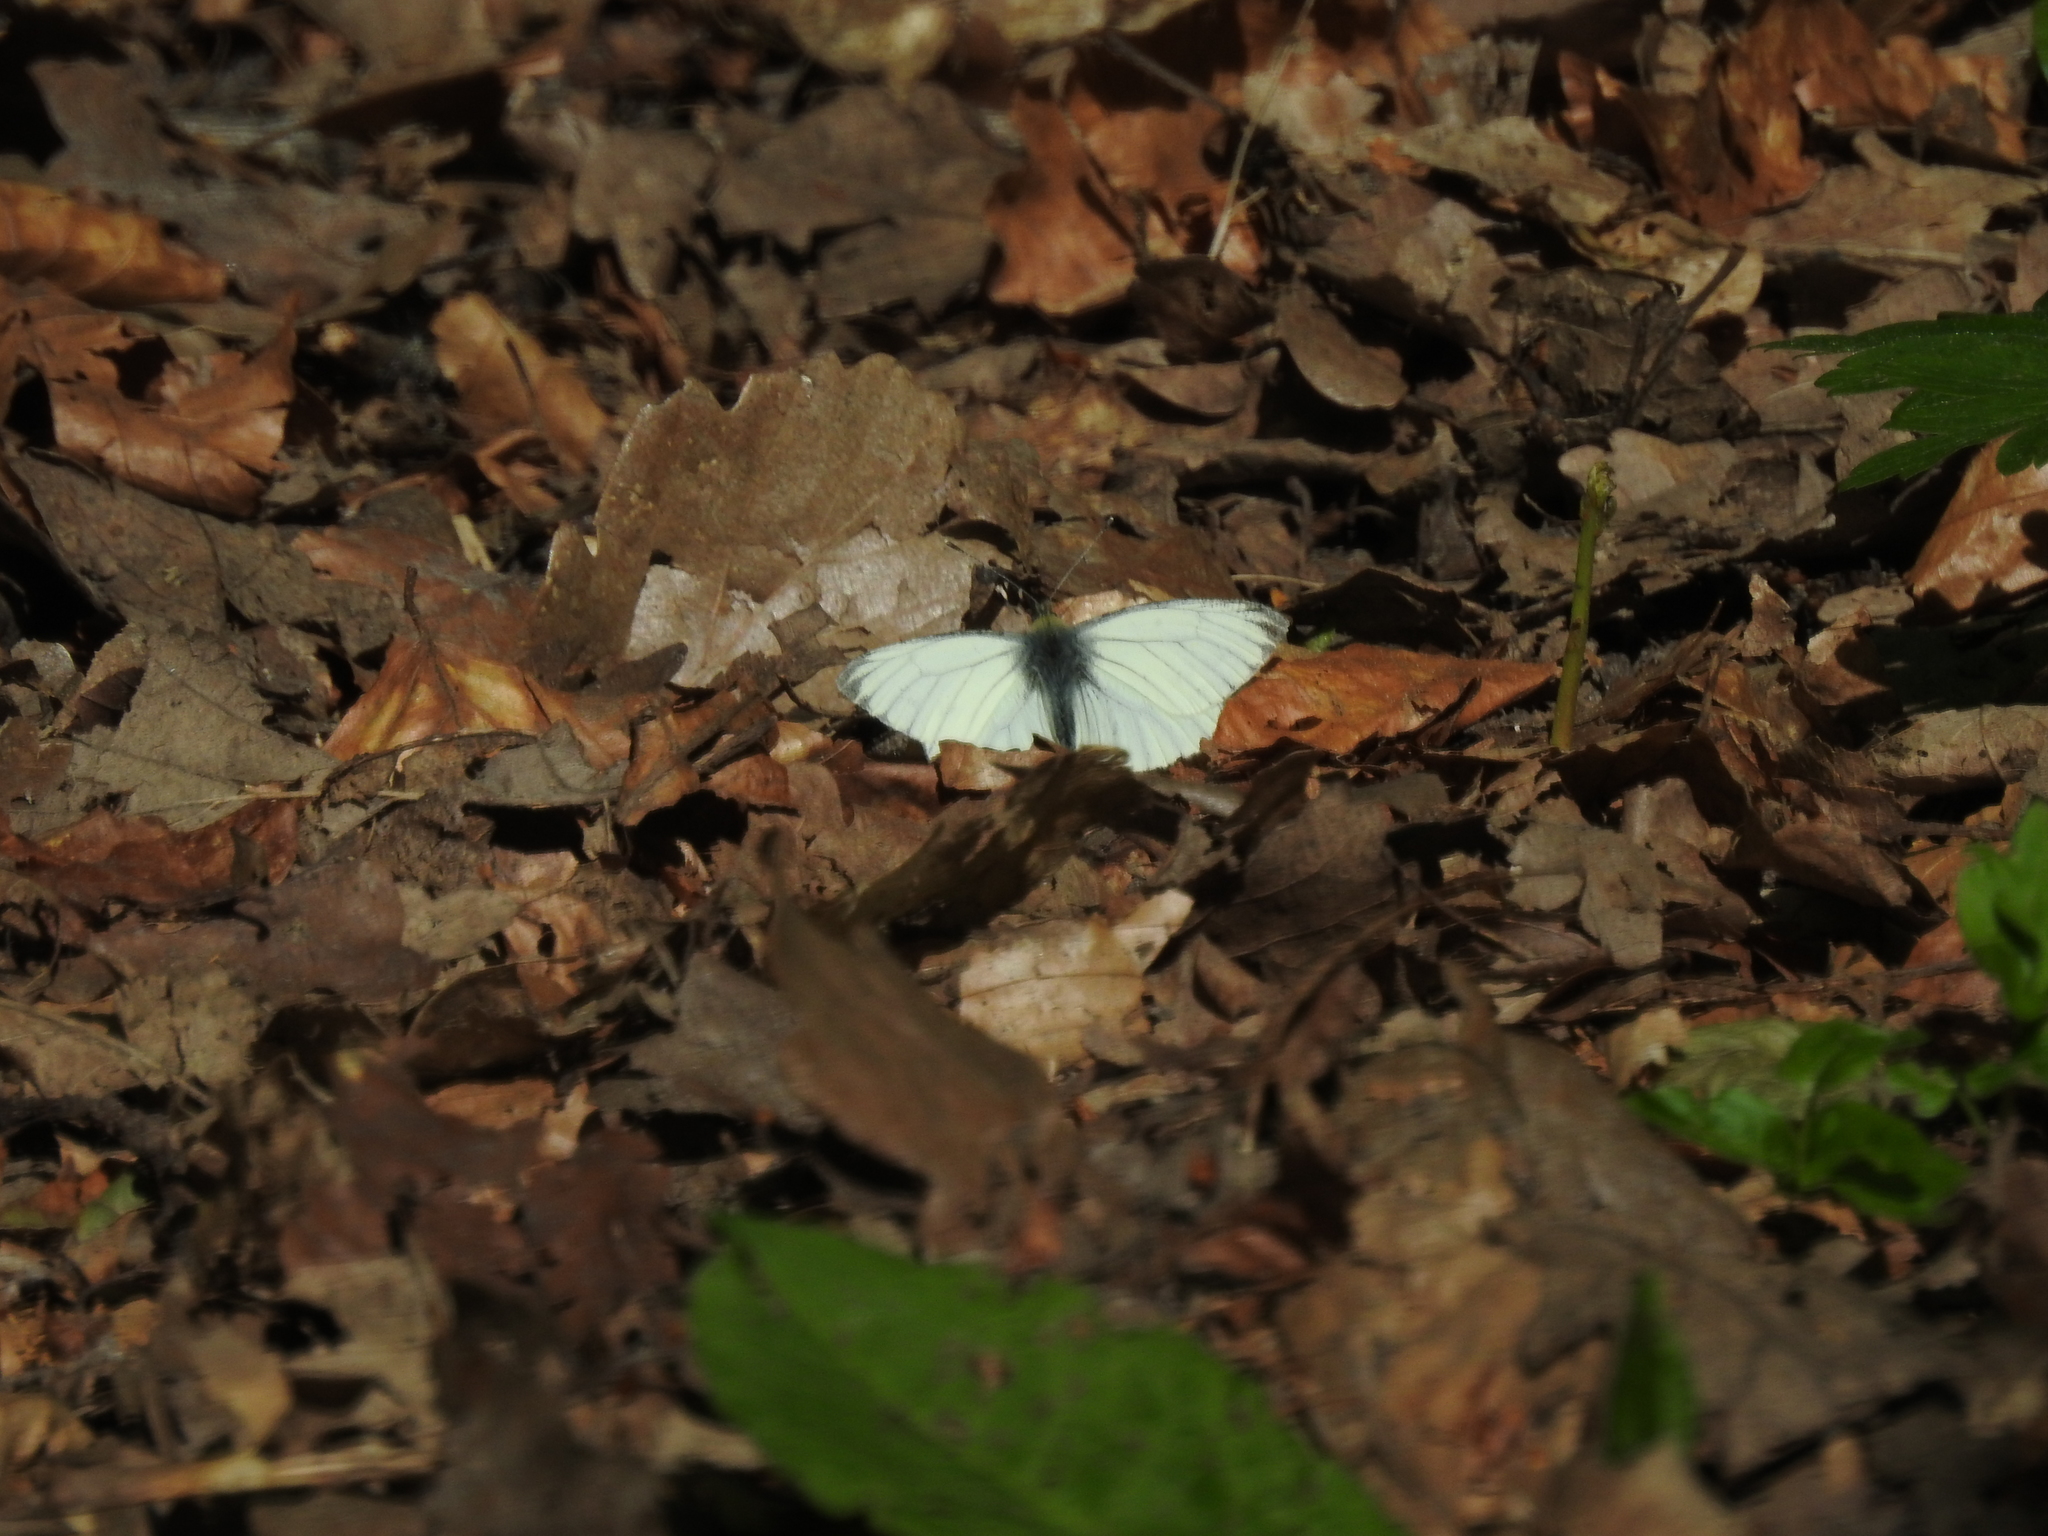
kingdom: Animalia
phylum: Arthropoda
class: Insecta
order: Lepidoptera
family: Pieridae
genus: Pieris
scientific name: Pieris napi
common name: Green-veined white
